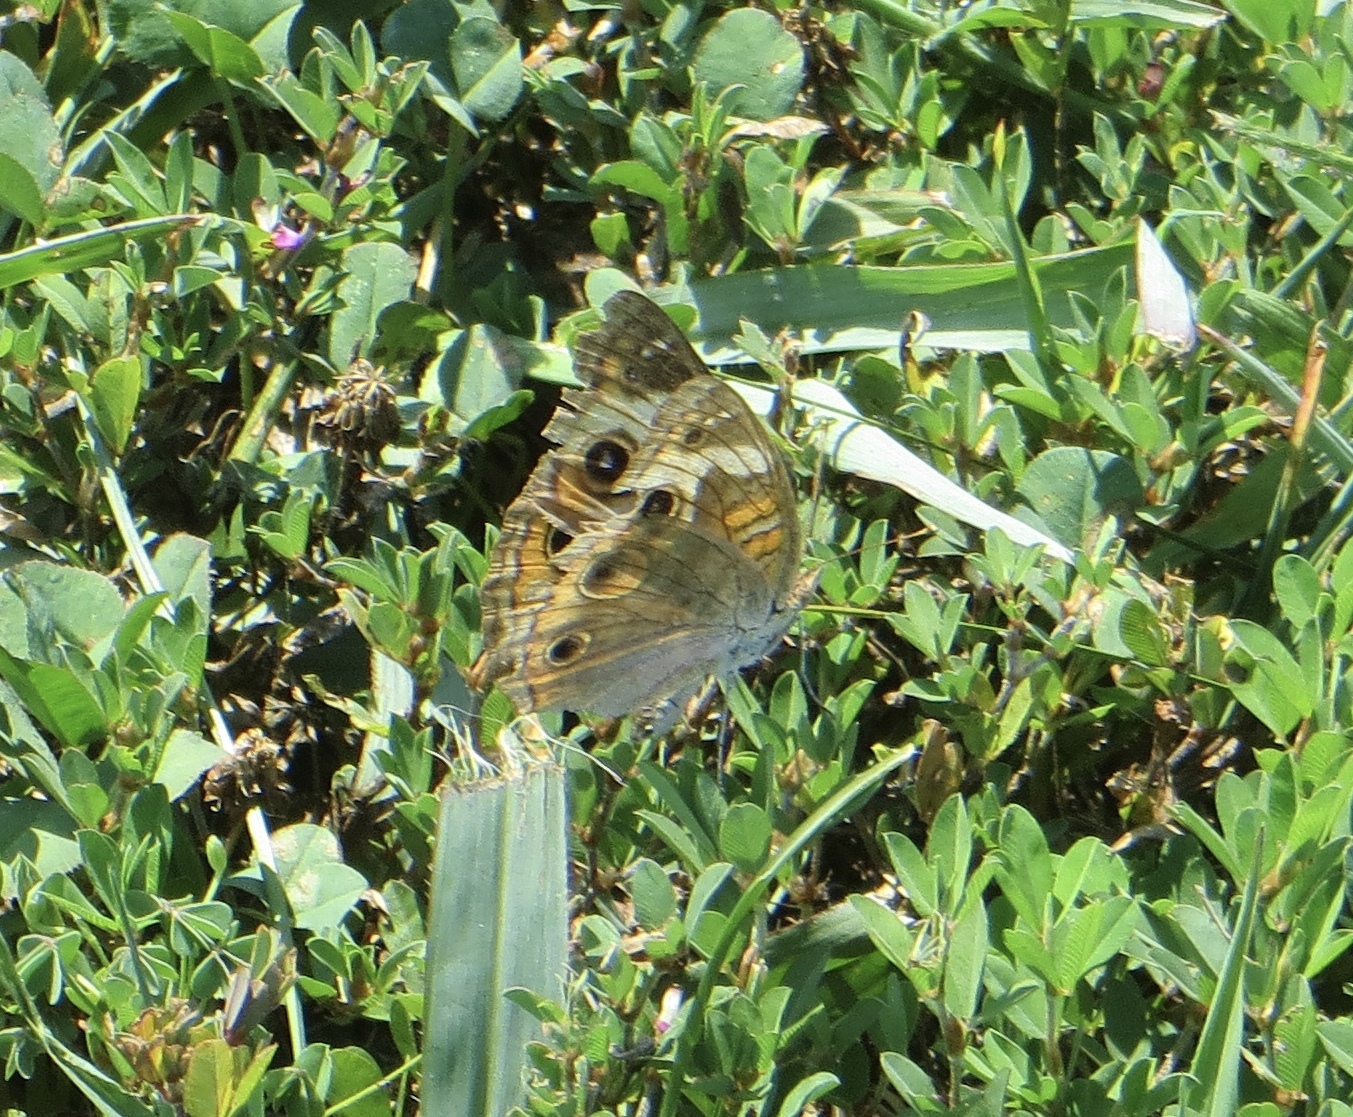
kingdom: Animalia
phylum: Arthropoda
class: Insecta
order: Lepidoptera
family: Nymphalidae
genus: Junonia
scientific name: Junonia coenia
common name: Common buckeye
